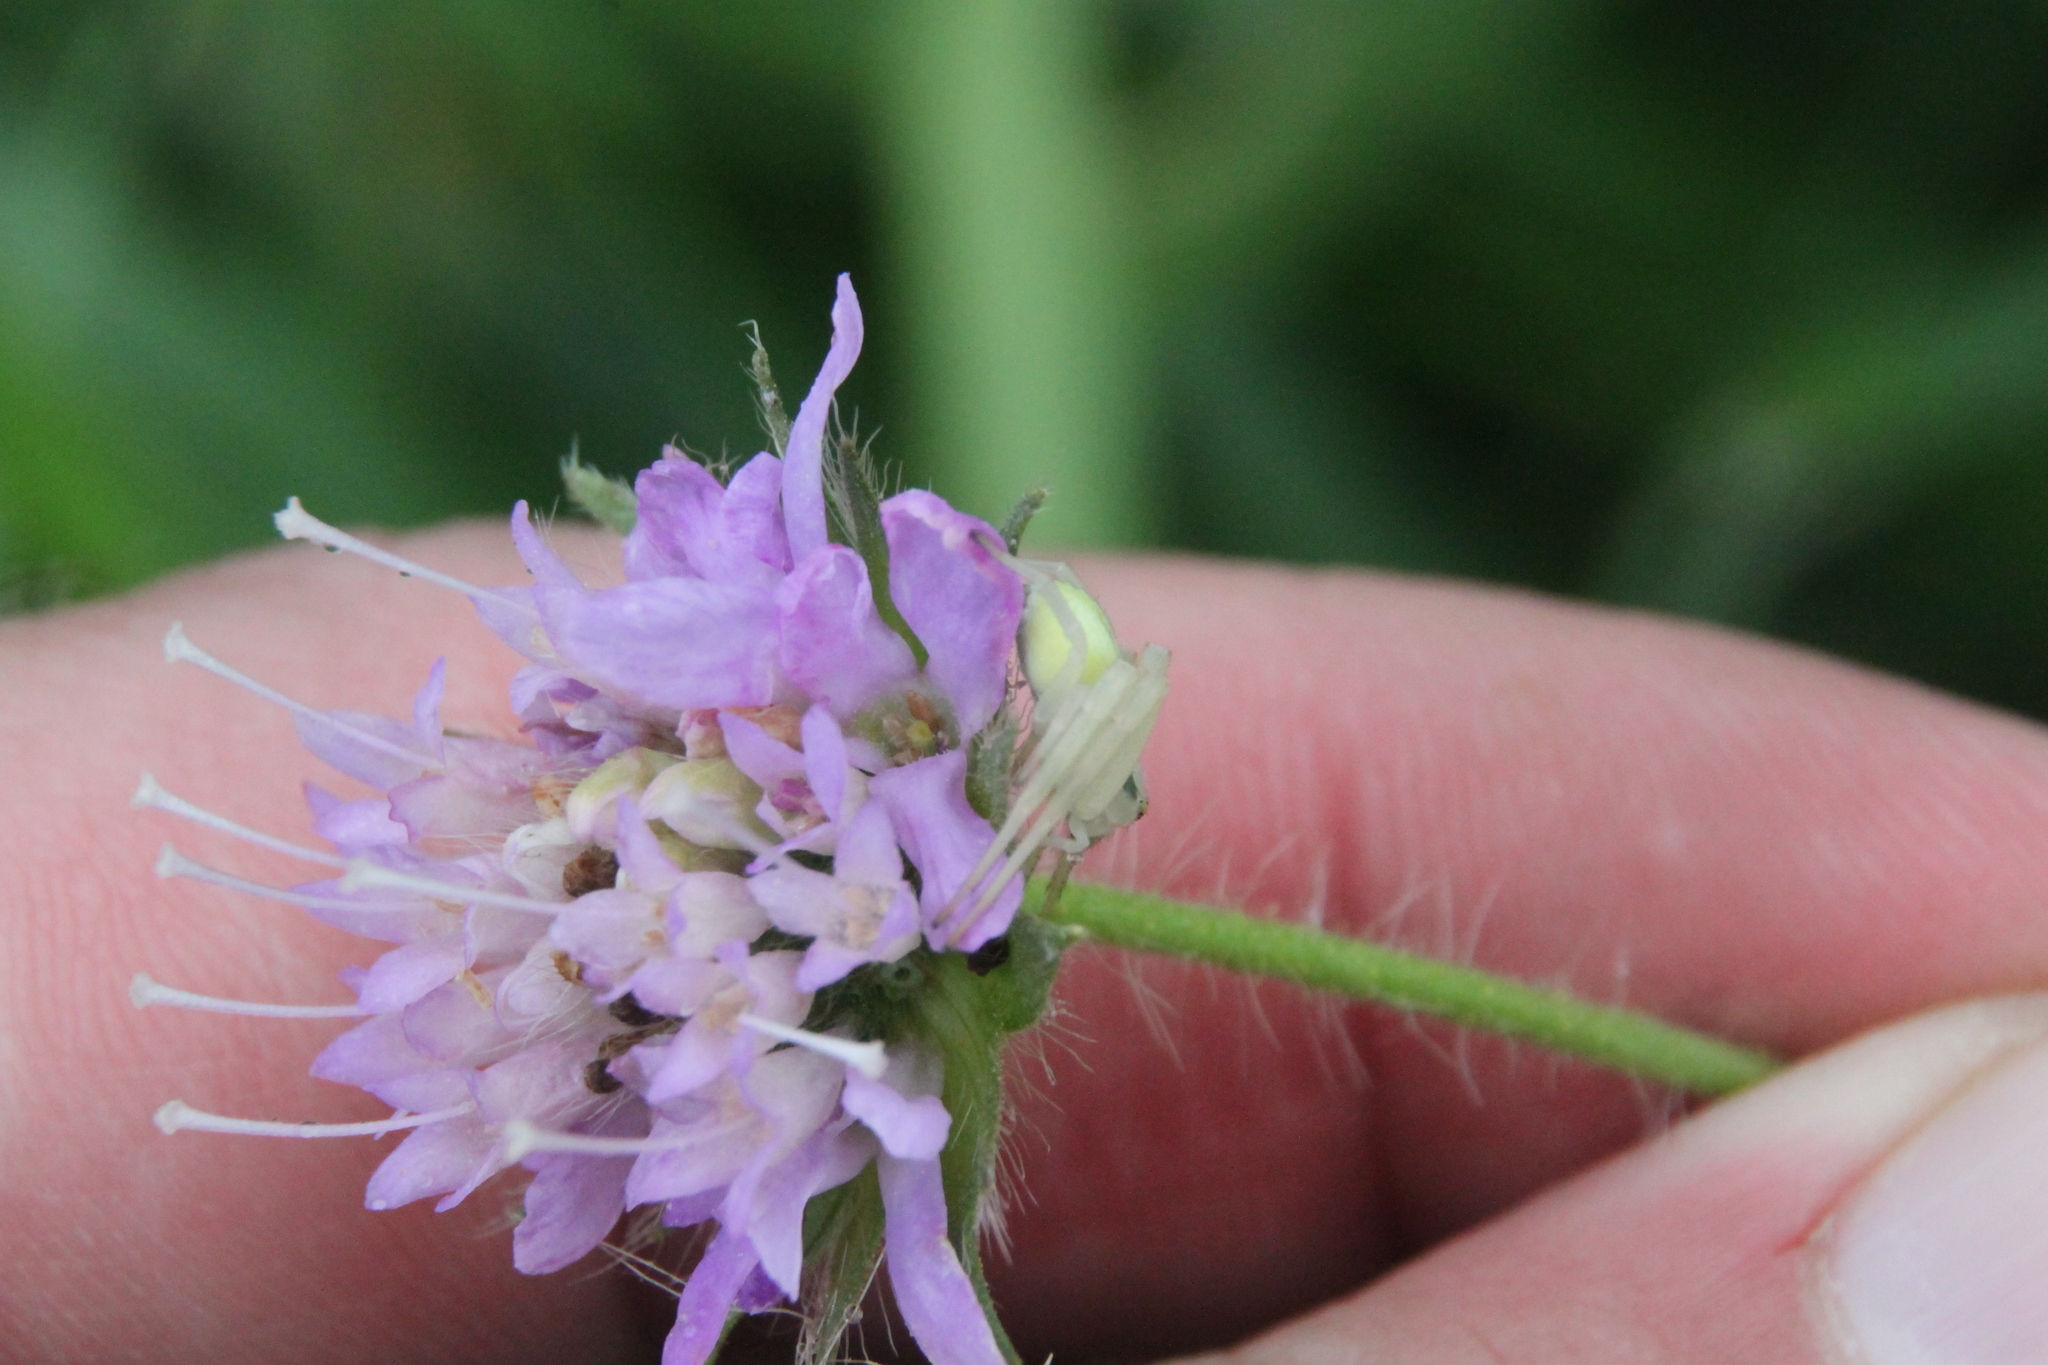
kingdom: Plantae
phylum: Tracheophyta
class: Magnoliopsida
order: Dipsacales
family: Caprifoliaceae
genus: Knautia
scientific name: Knautia arvensis
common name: Field scabiosa
